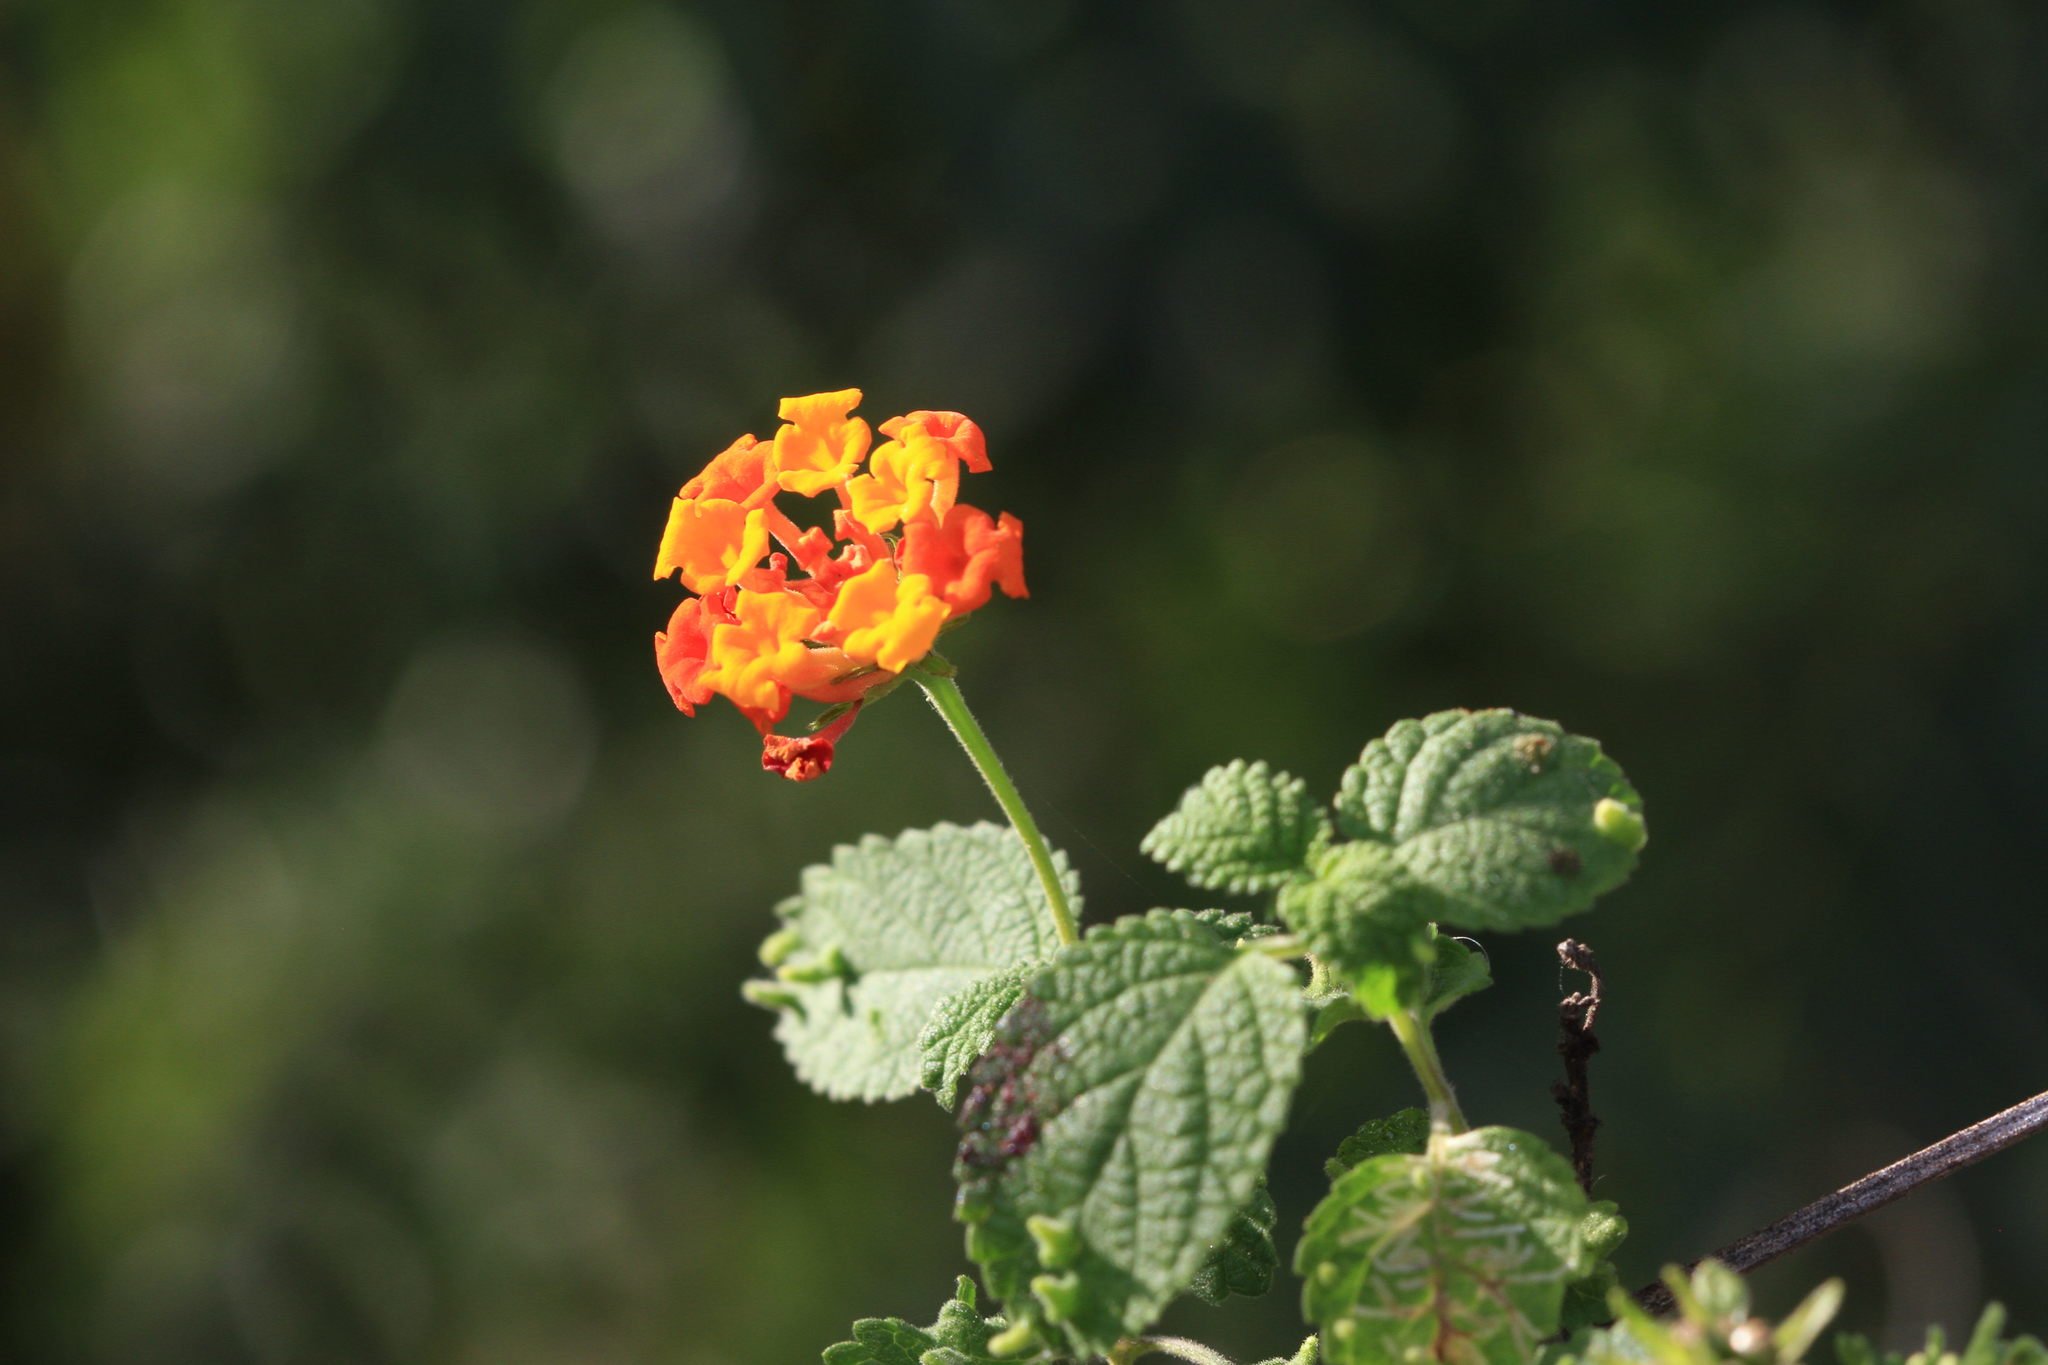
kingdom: Plantae
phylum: Tracheophyta
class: Magnoliopsida
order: Lamiales
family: Verbenaceae
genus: Lantana
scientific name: Lantana camara
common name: Lantana
